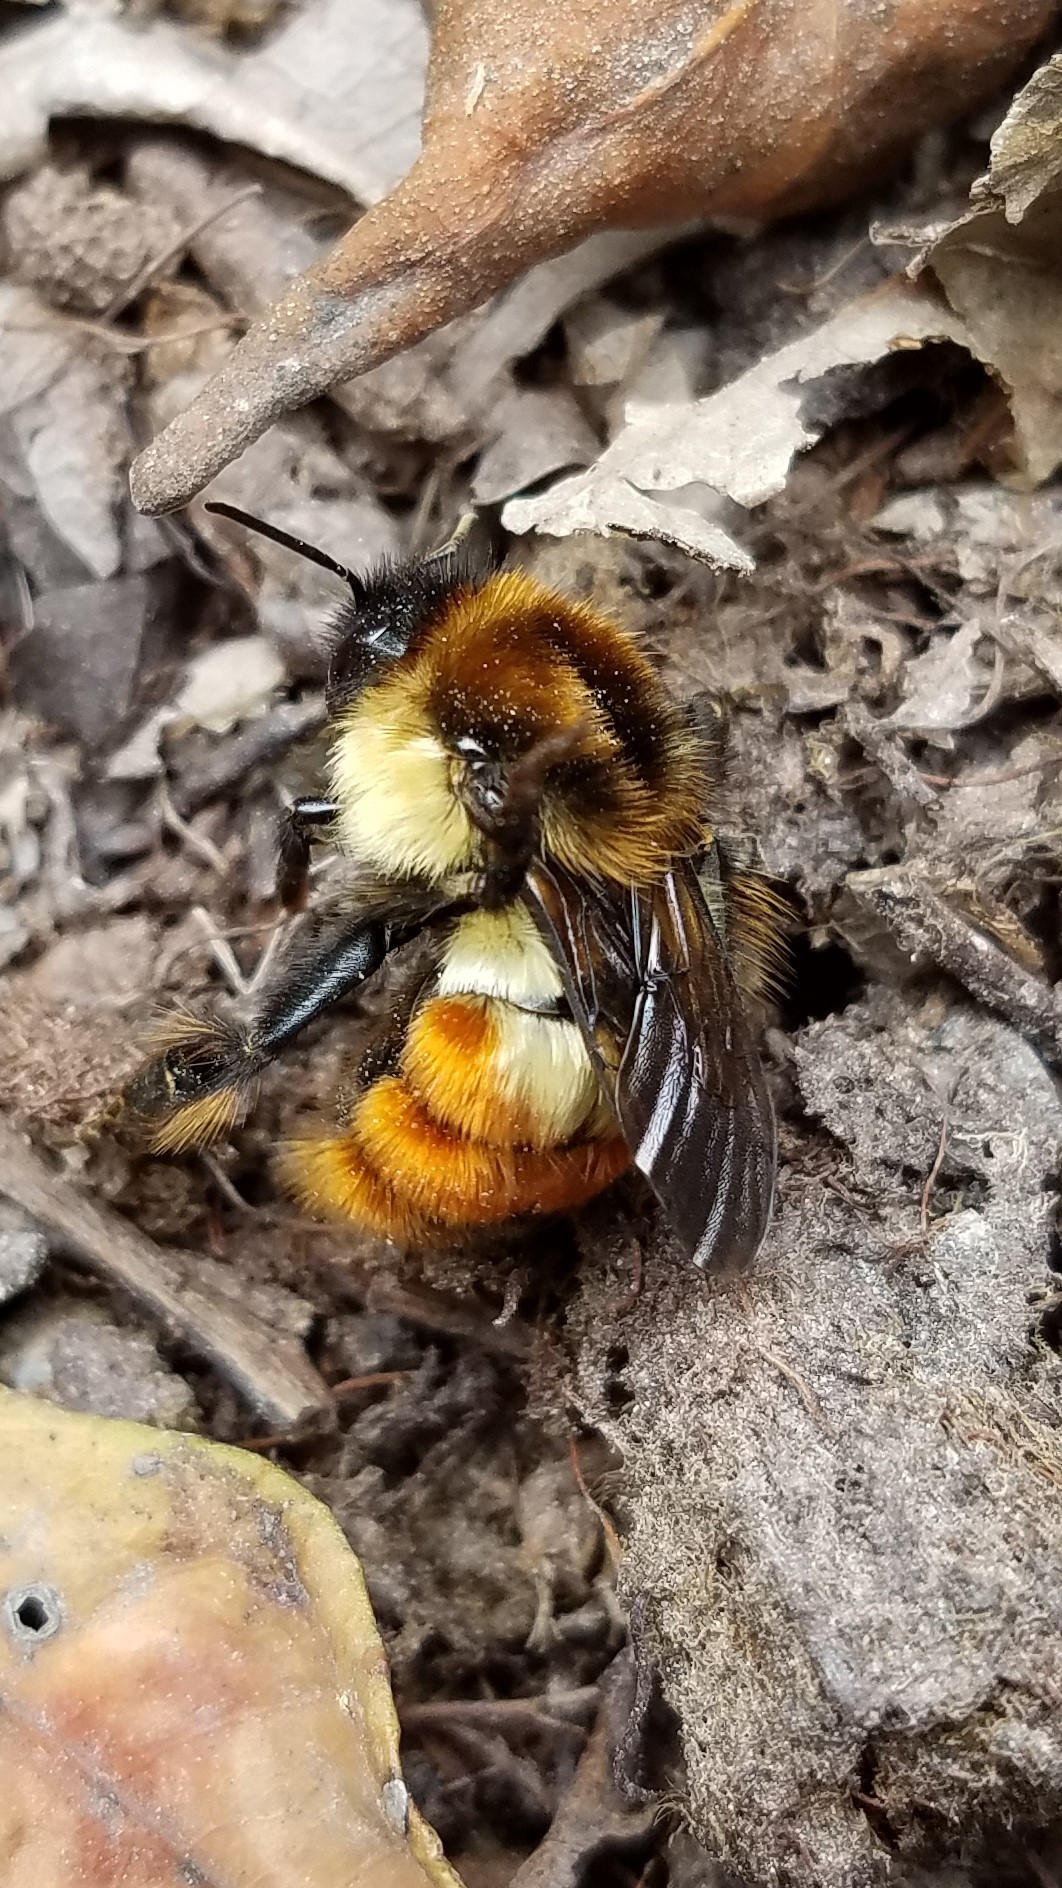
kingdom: Animalia
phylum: Arthropoda
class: Insecta
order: Hymenoptera
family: Apidae
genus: Bombus
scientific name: Bombus ephippiatus
